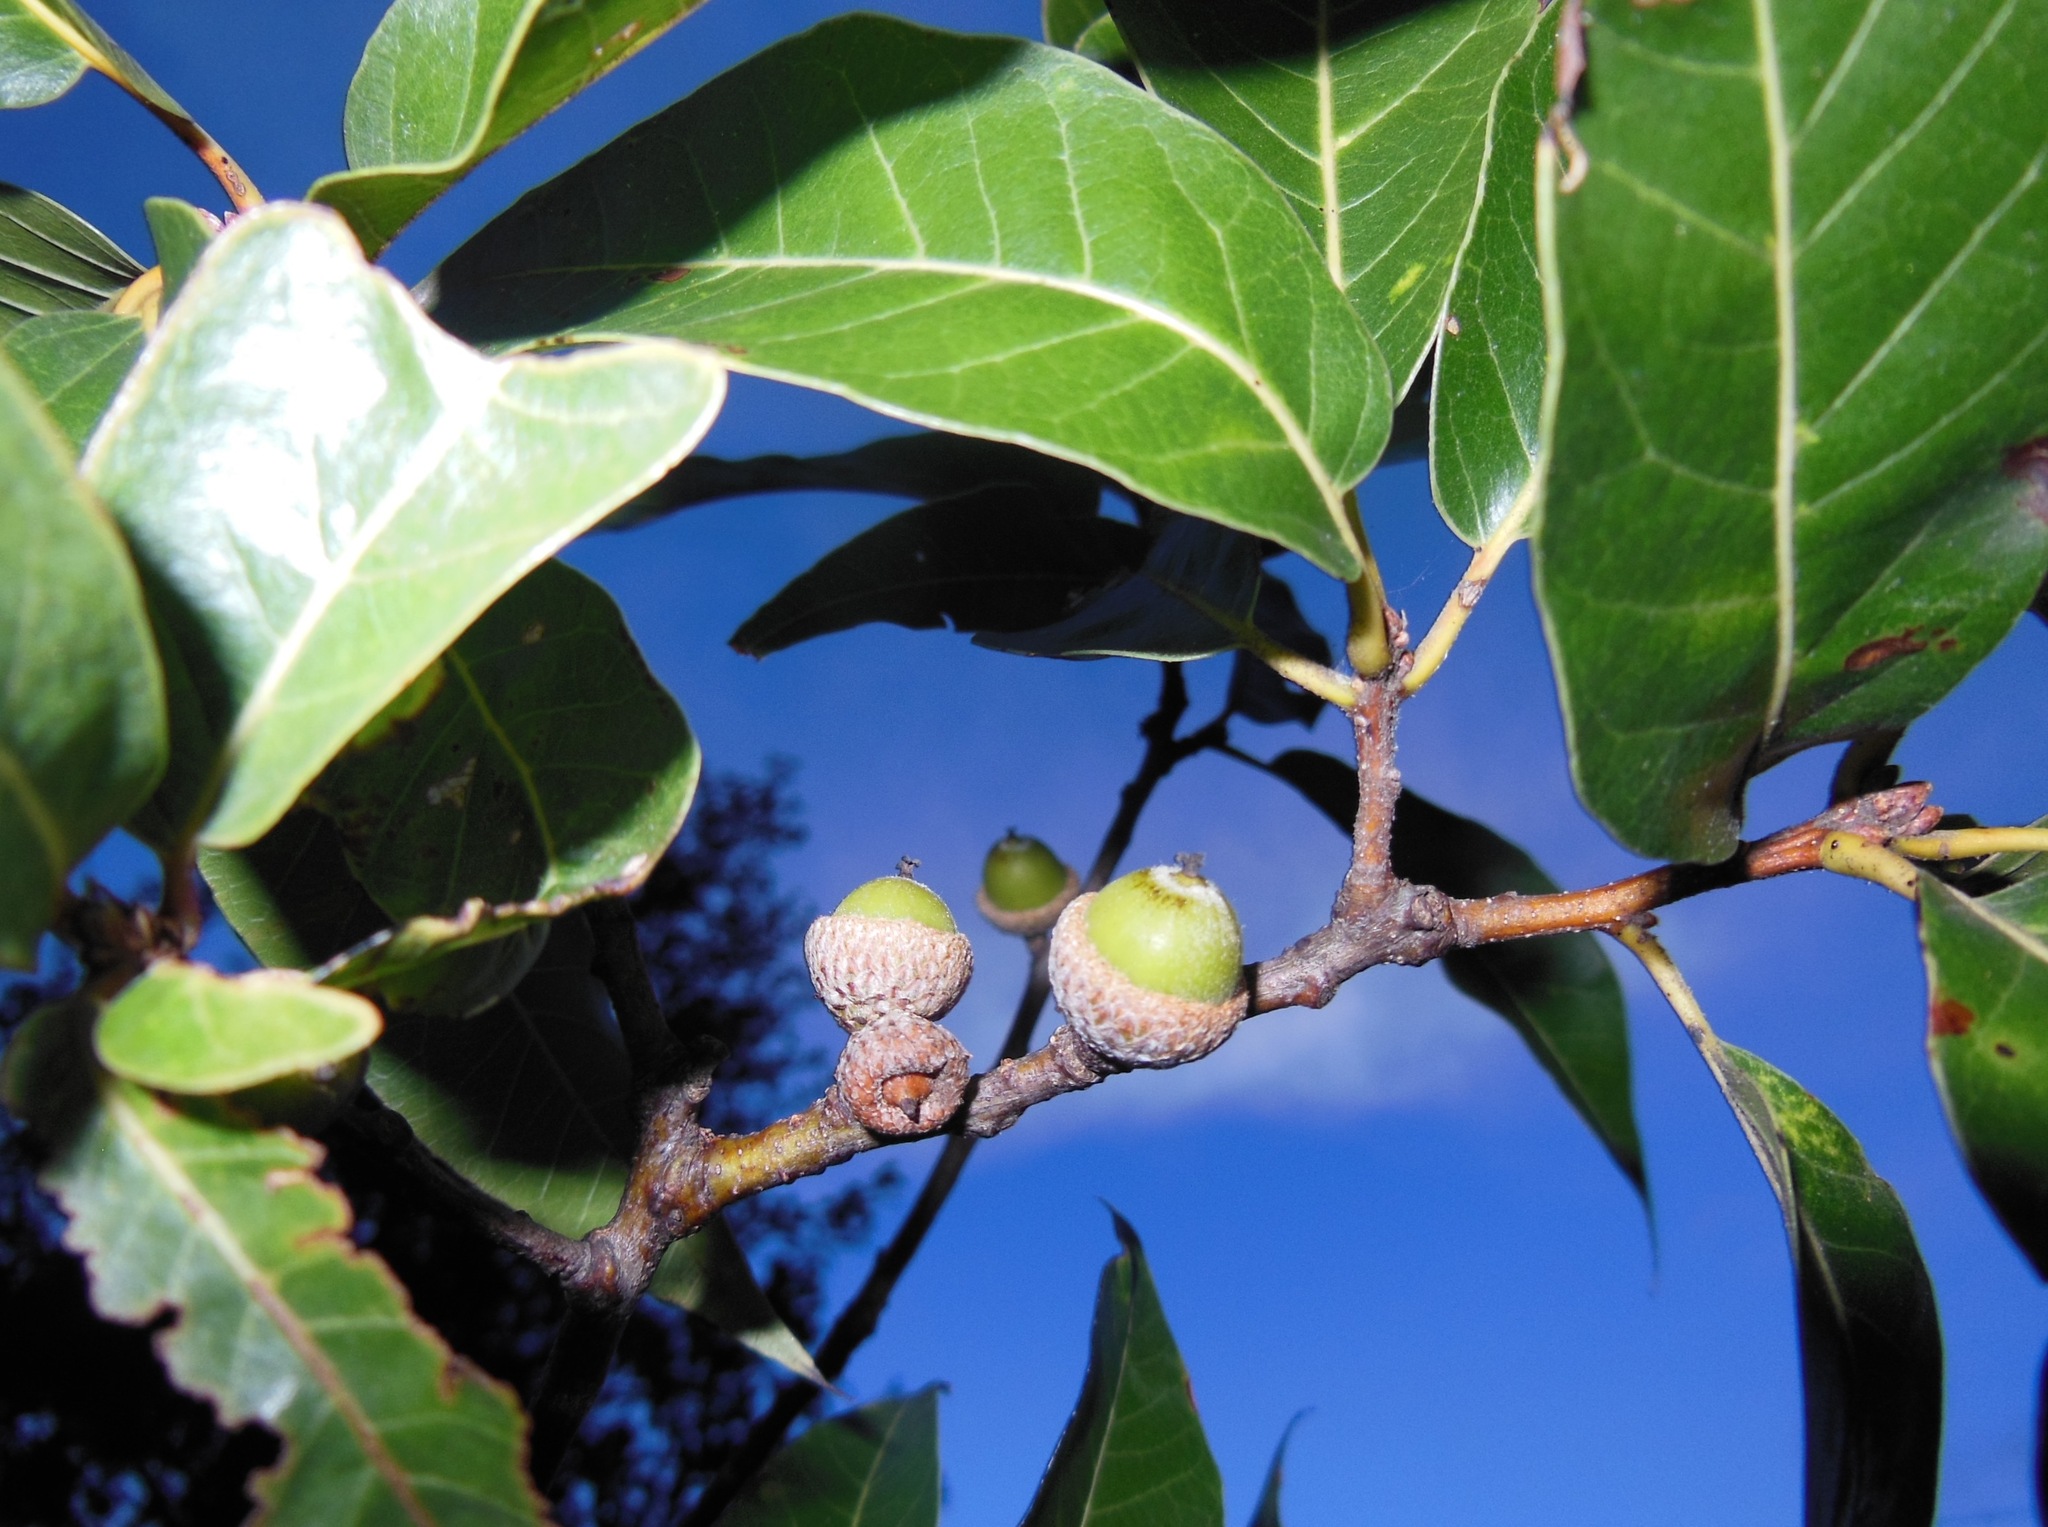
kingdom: Plantae
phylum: Tracheophyta
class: Magnoliopsida
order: Fagales
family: Fagaceae
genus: Quercus
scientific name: Quercus acutifolia
